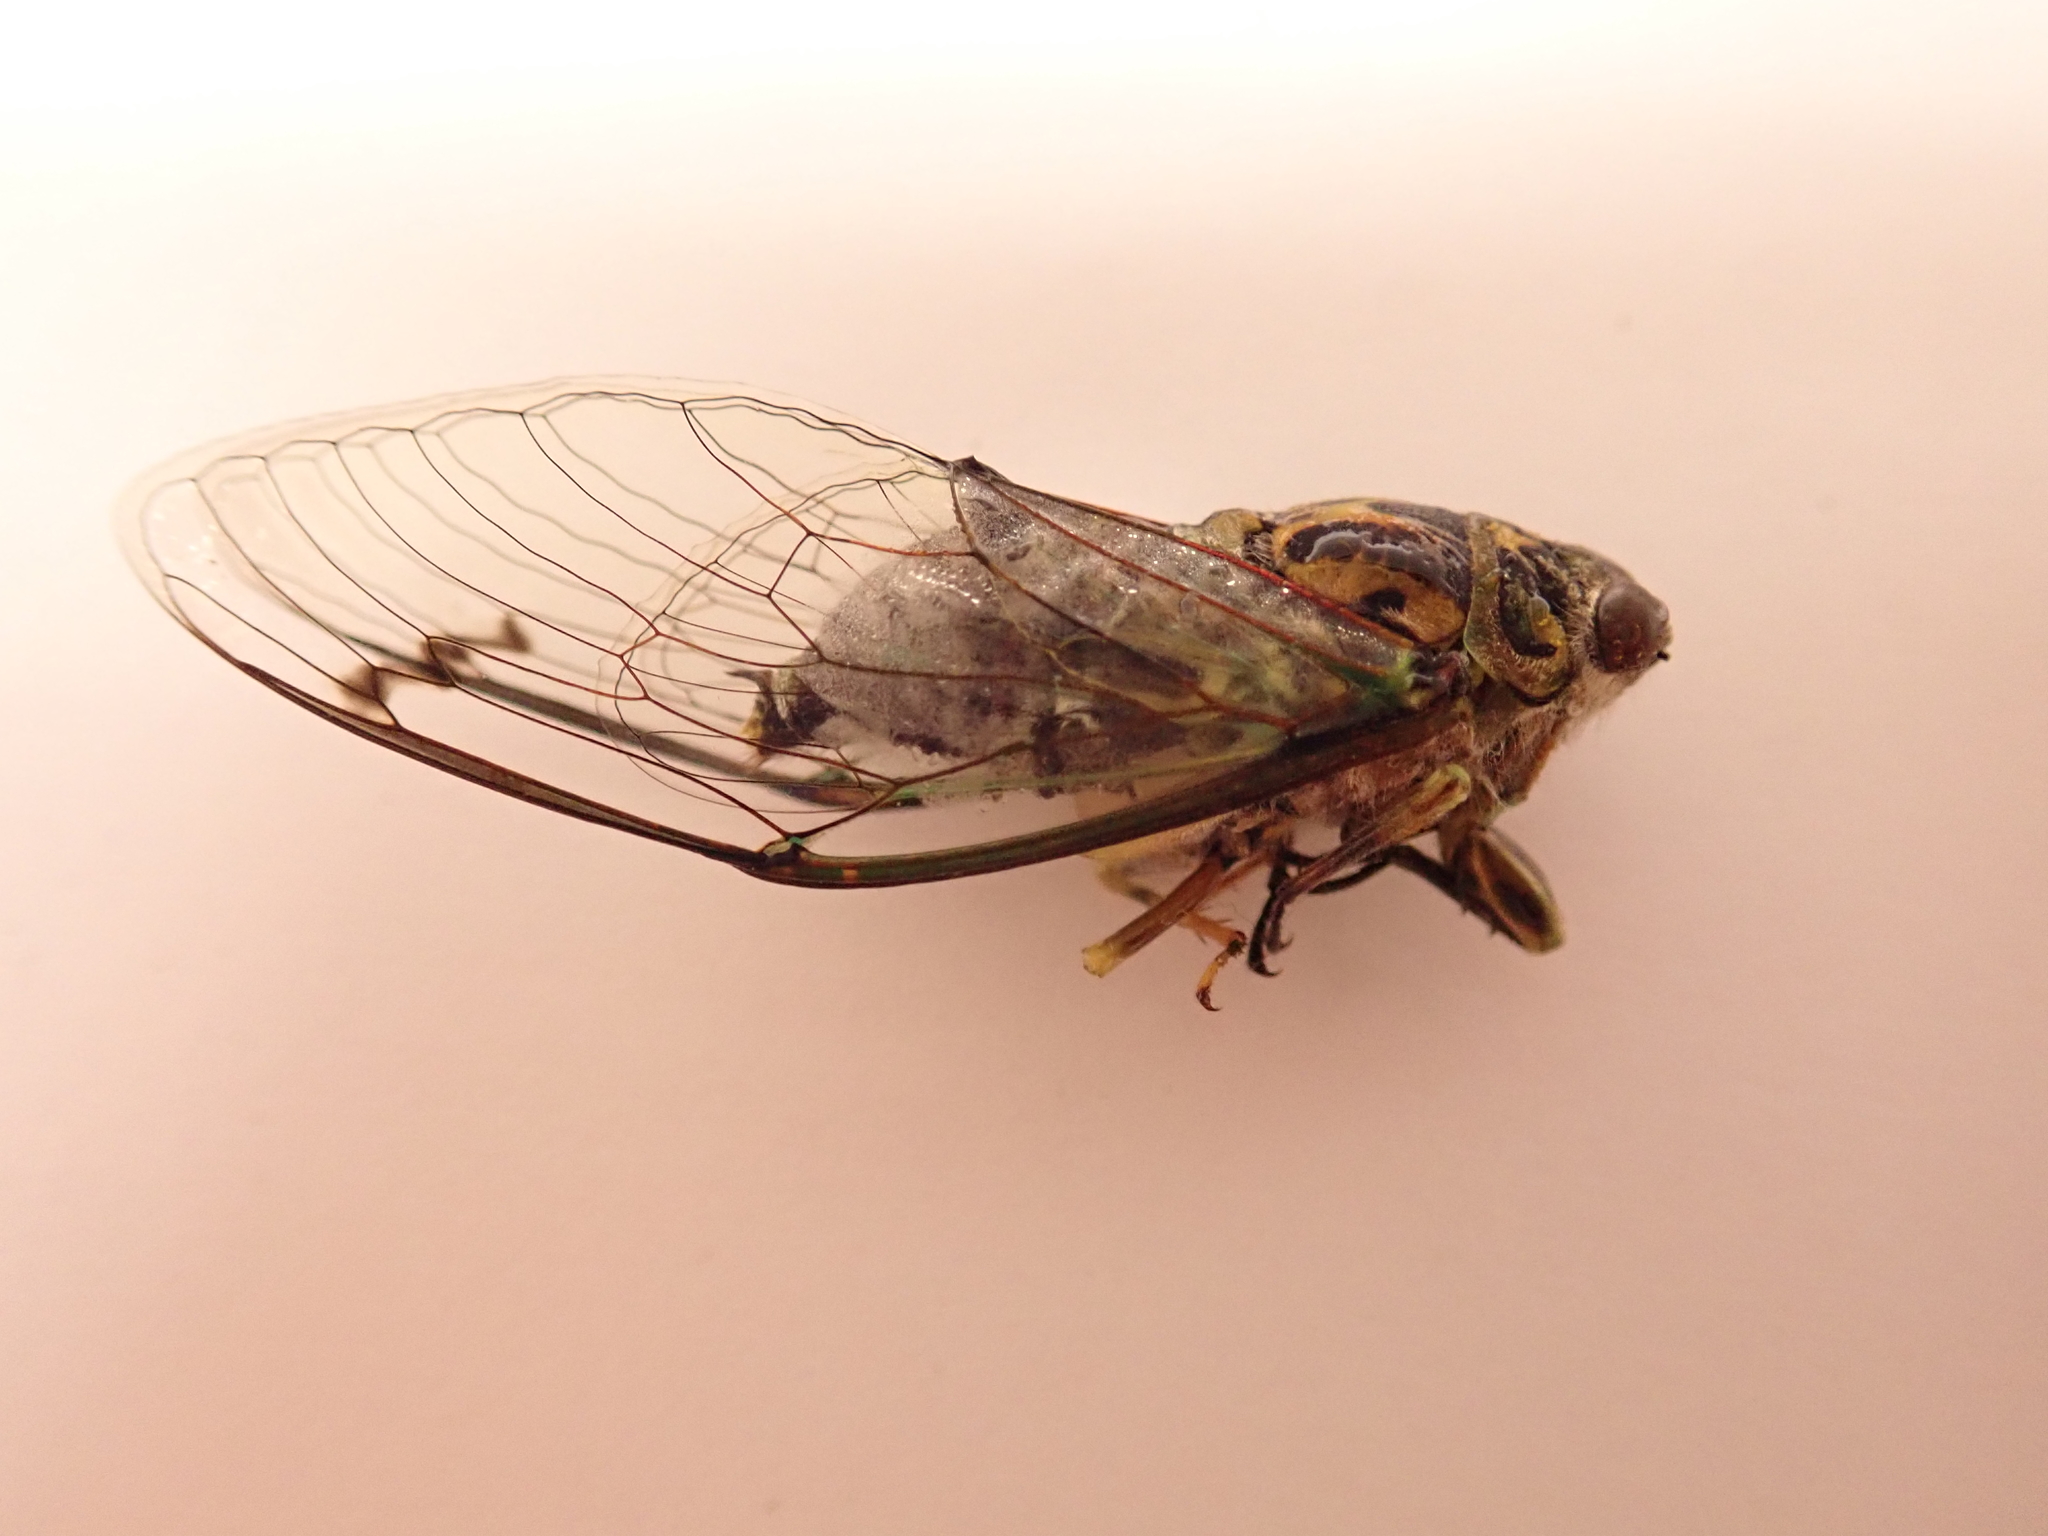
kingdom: Animalia
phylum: Arthropoda
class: Insecta
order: Hemiptera
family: Cicadidae
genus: Amphipsalta
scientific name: Amphipsalta zelandica
